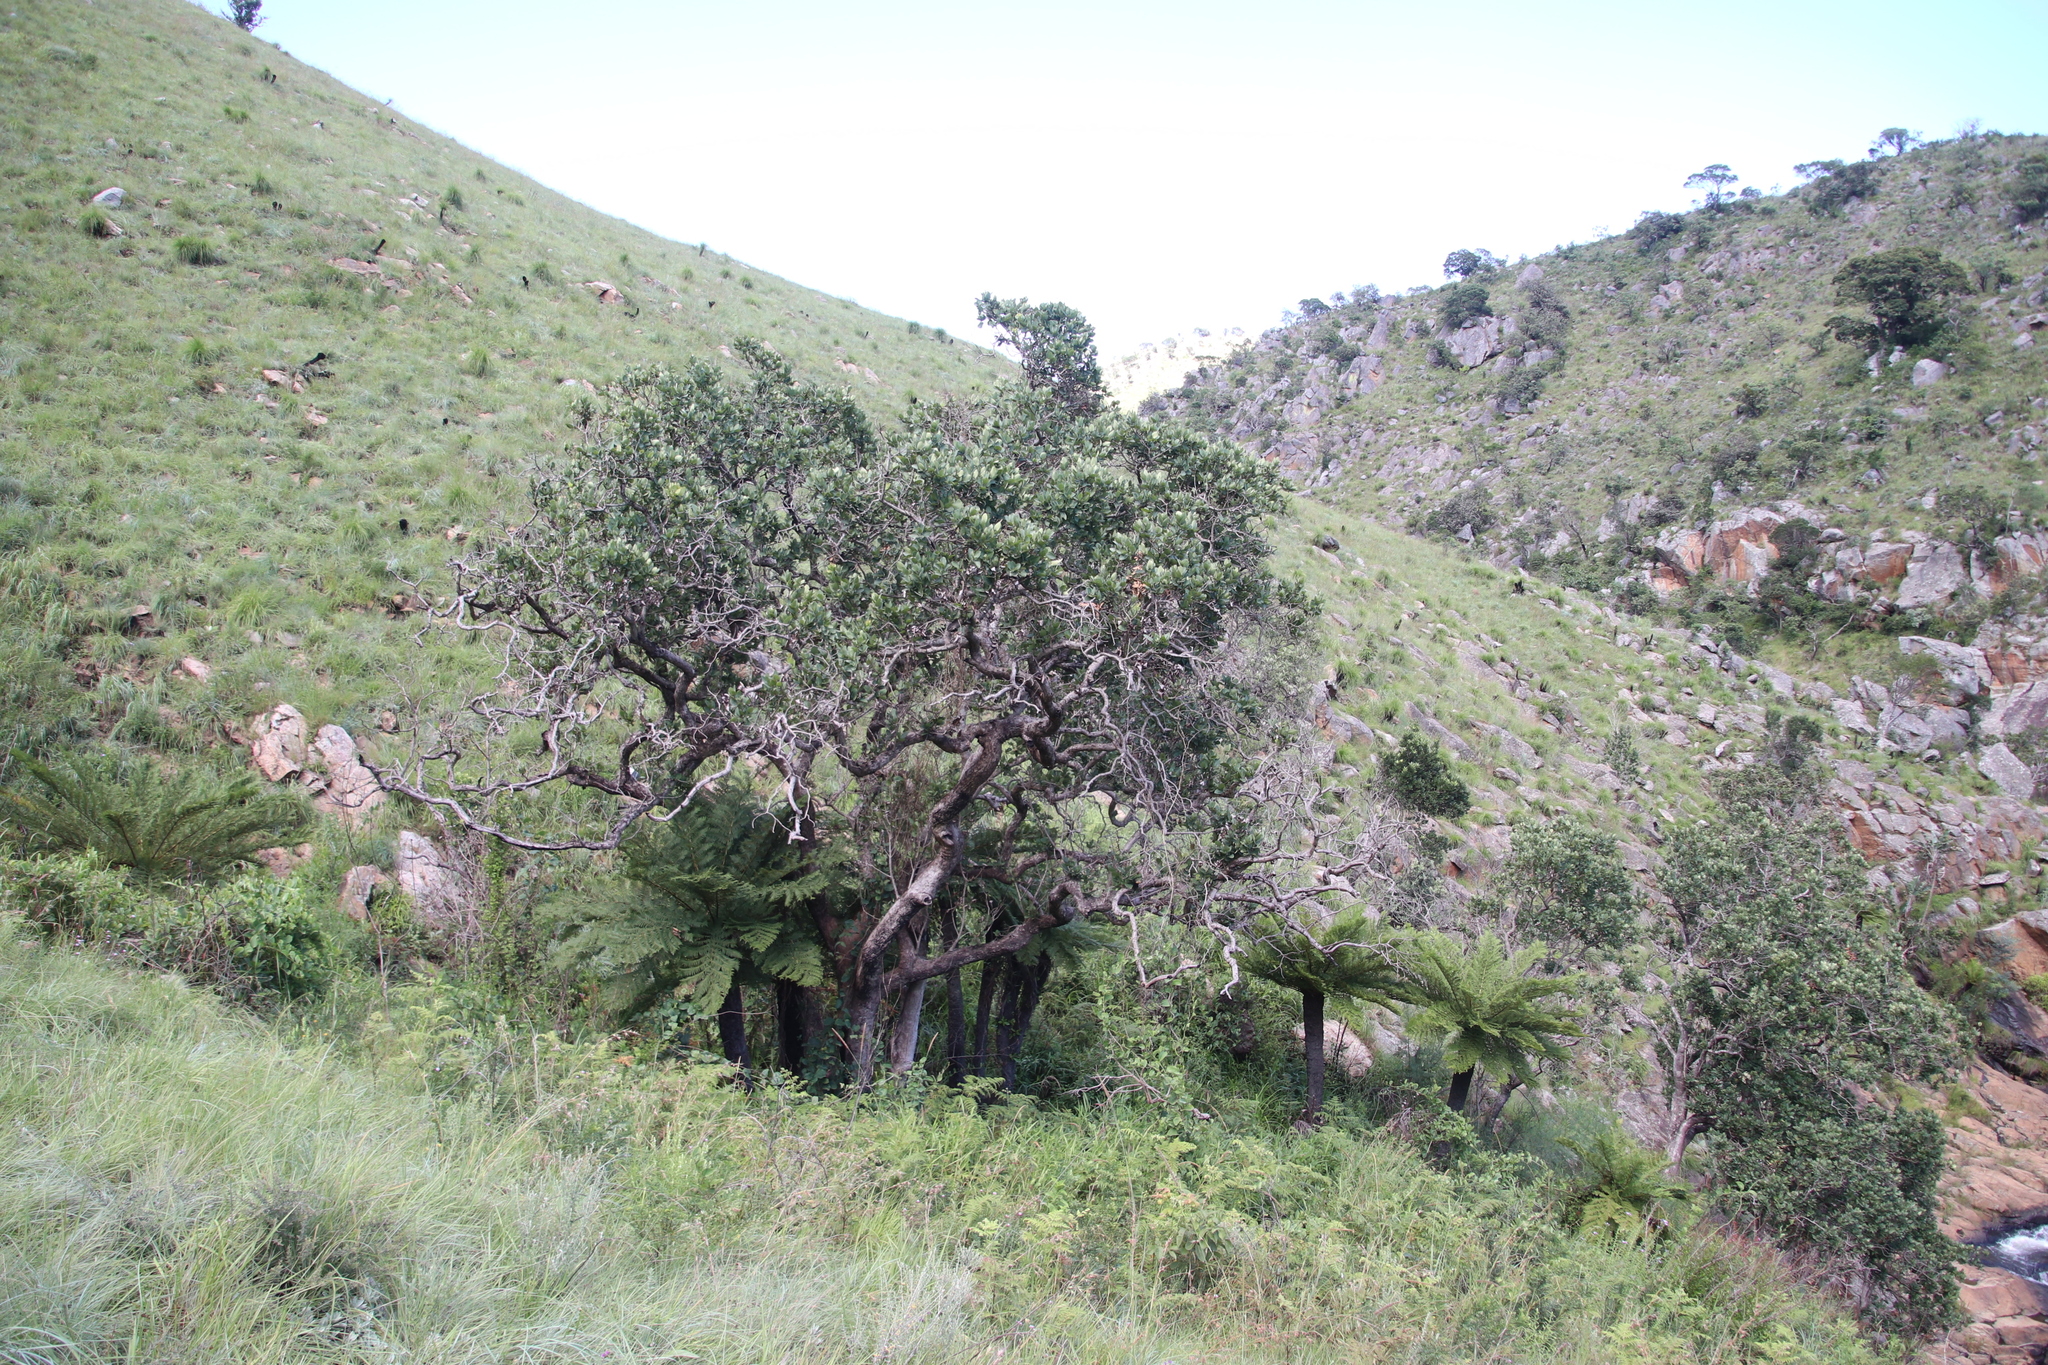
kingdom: Plantae
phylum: Tracheophyta
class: Magnoliopsida
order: Myrtales
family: Myrtaceae
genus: Syzygium
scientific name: Syzygium cordatum
